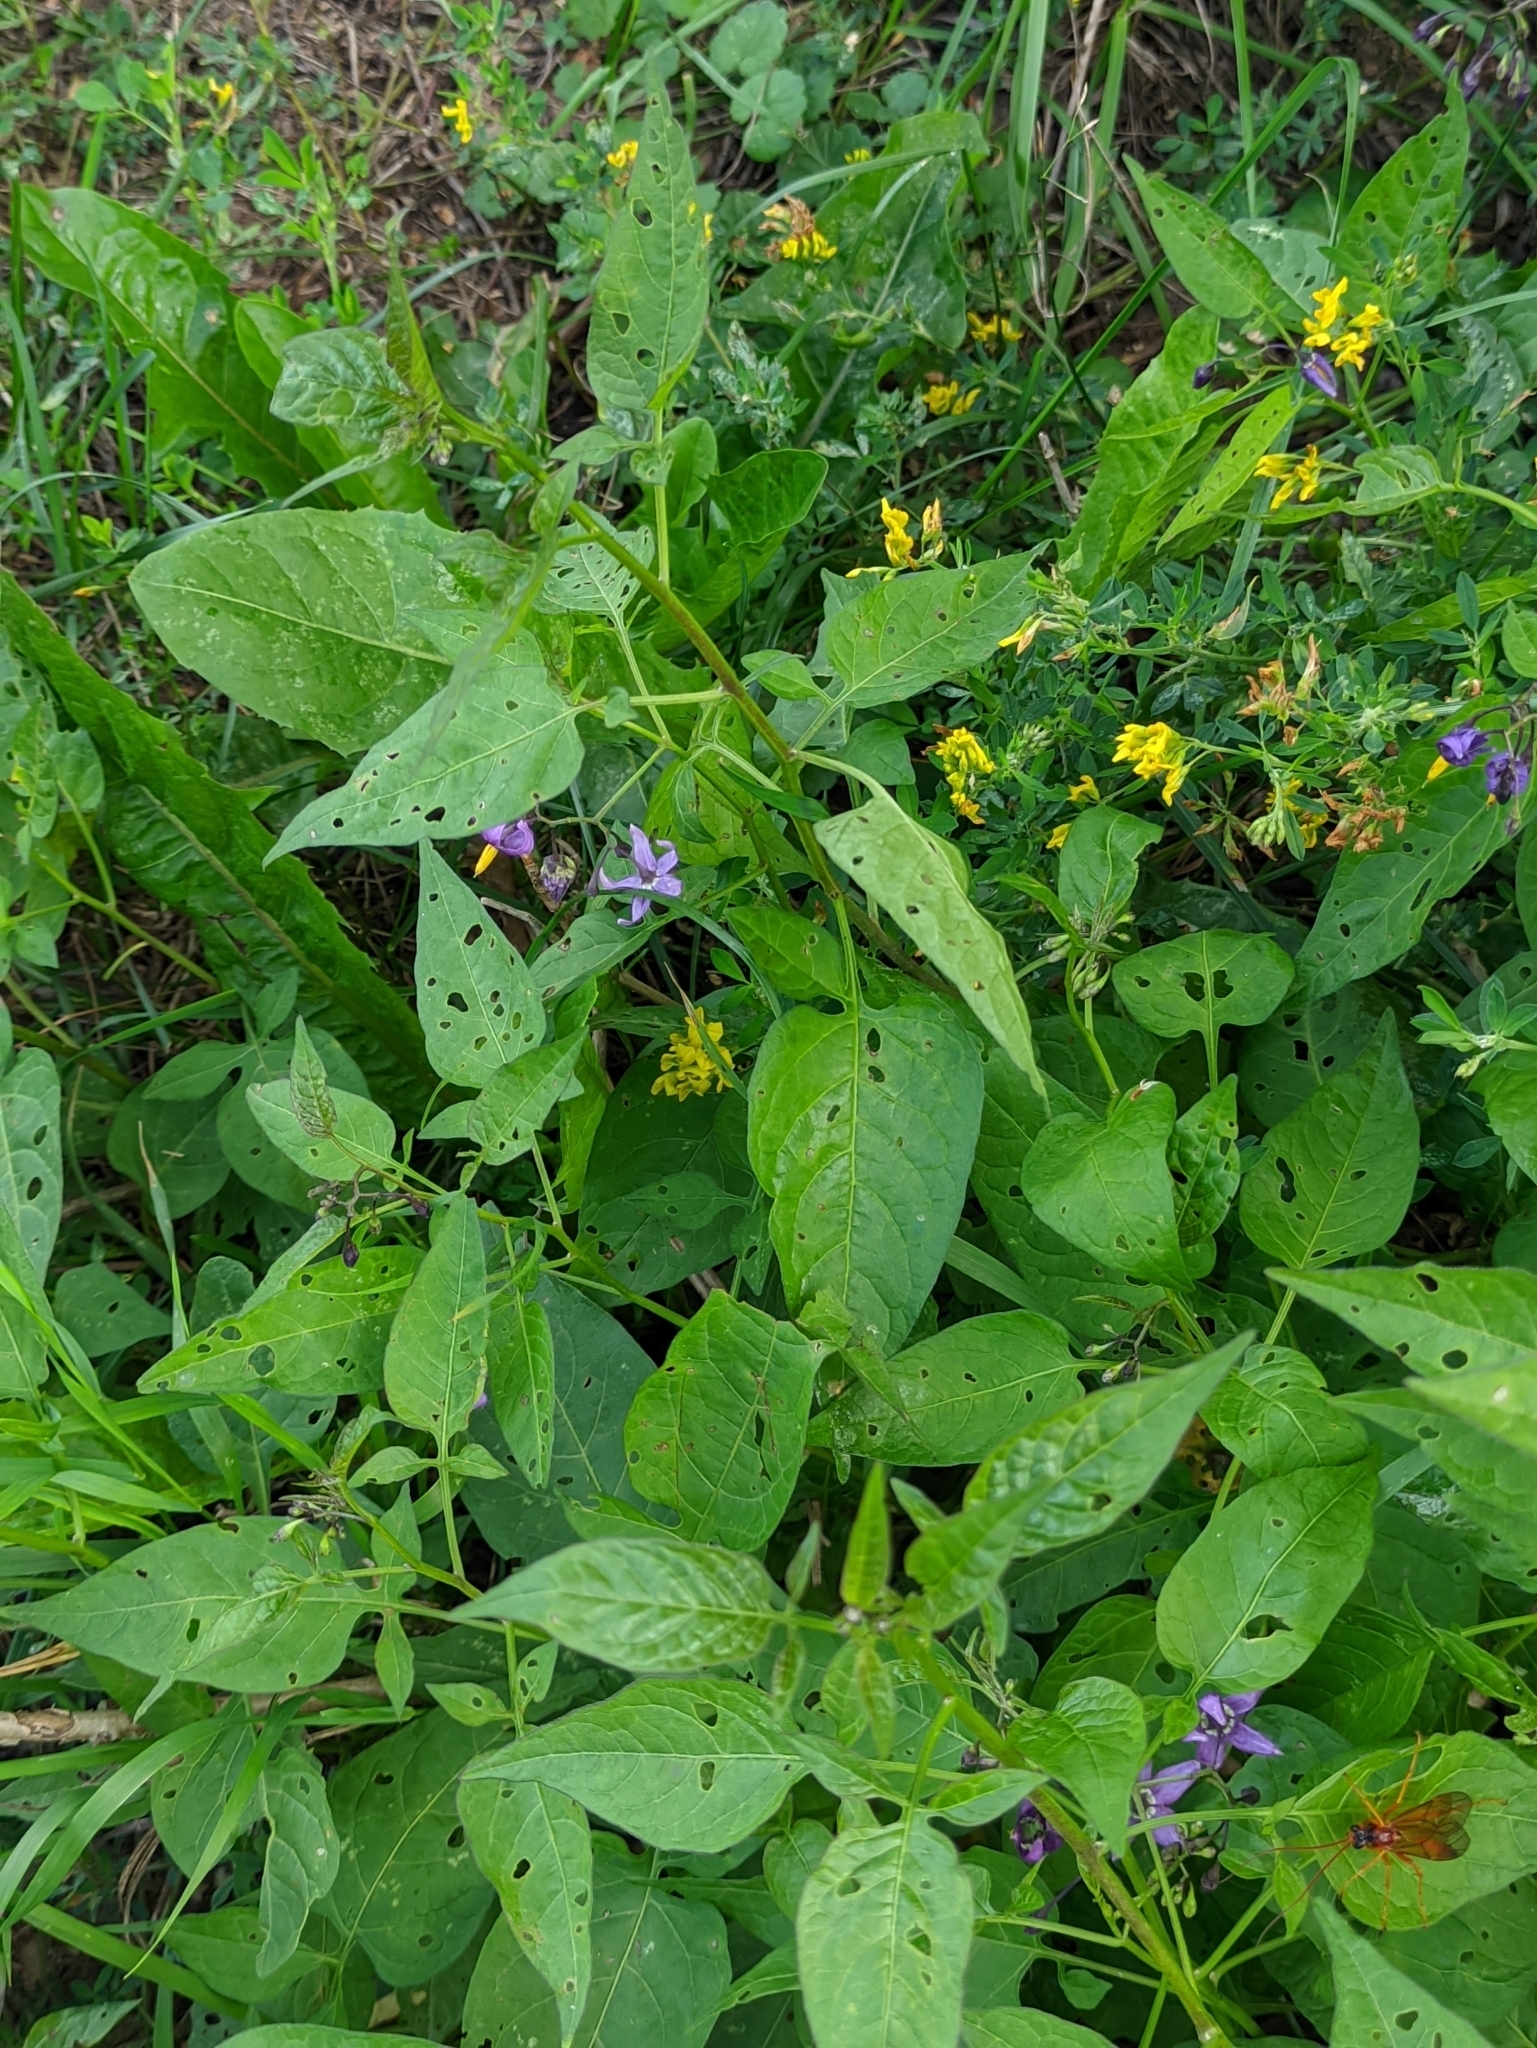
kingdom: Plantae
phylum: Tracheophyta
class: Magnoliopsida
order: Solanales
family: Solanaceae
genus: Solanum
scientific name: Solanum dulcamara
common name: Climbing nightshade
